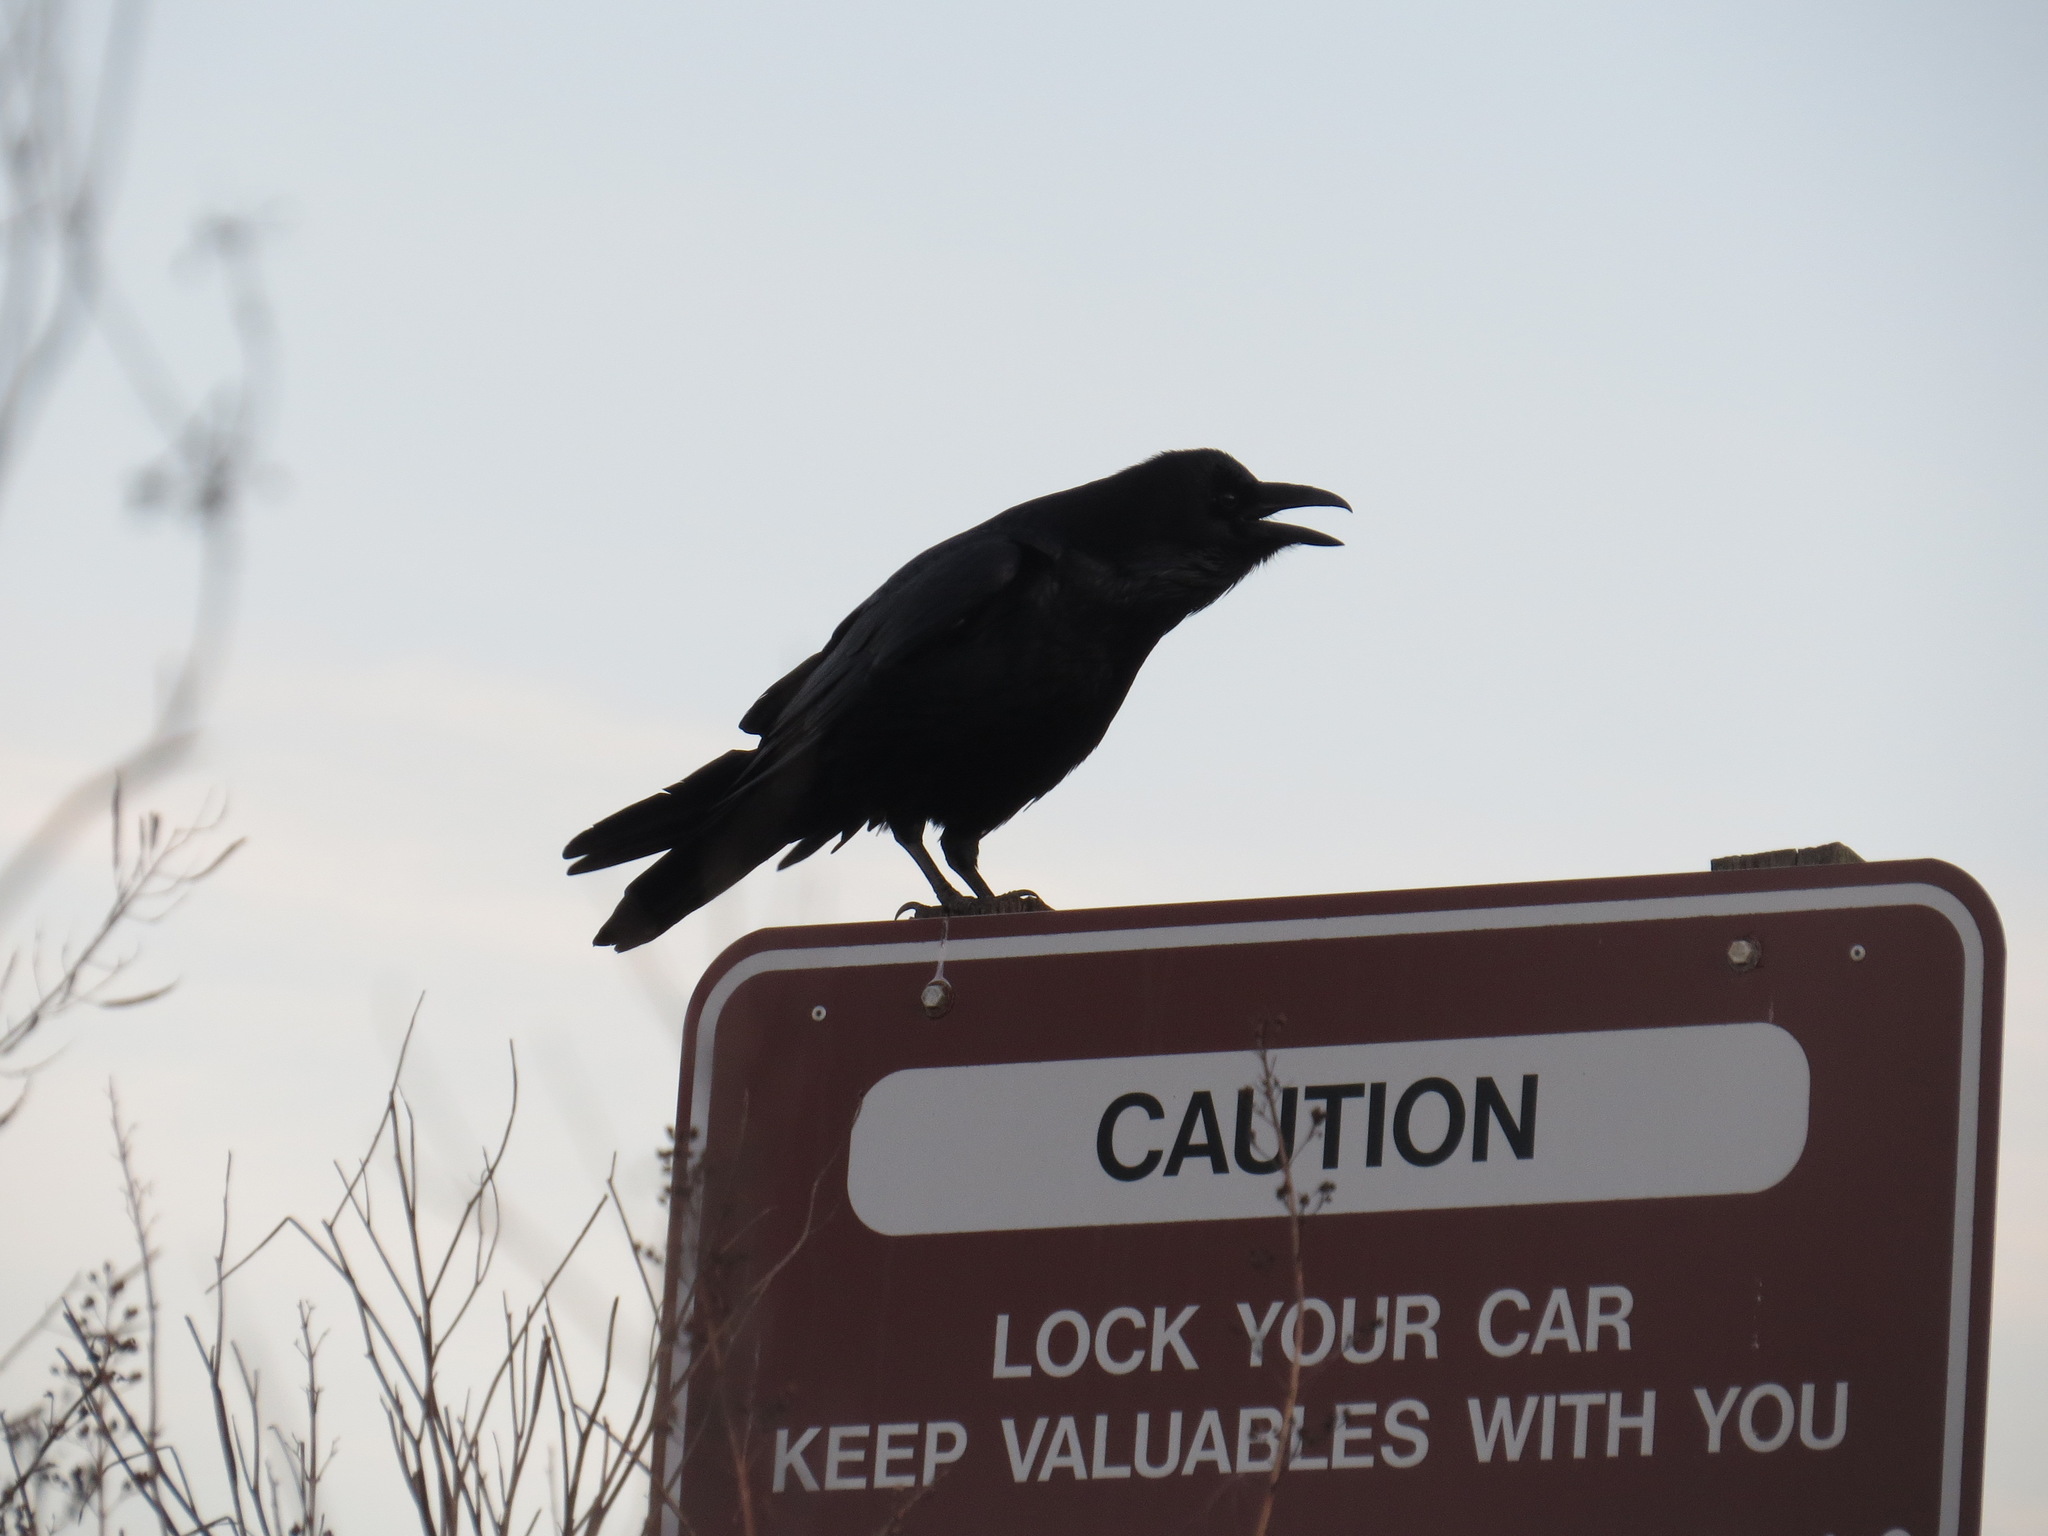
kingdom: Animalia
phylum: Chordata
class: Aves
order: Passeriformes
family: Corvidae
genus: Corvus
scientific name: Corvus corax
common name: Common raven
